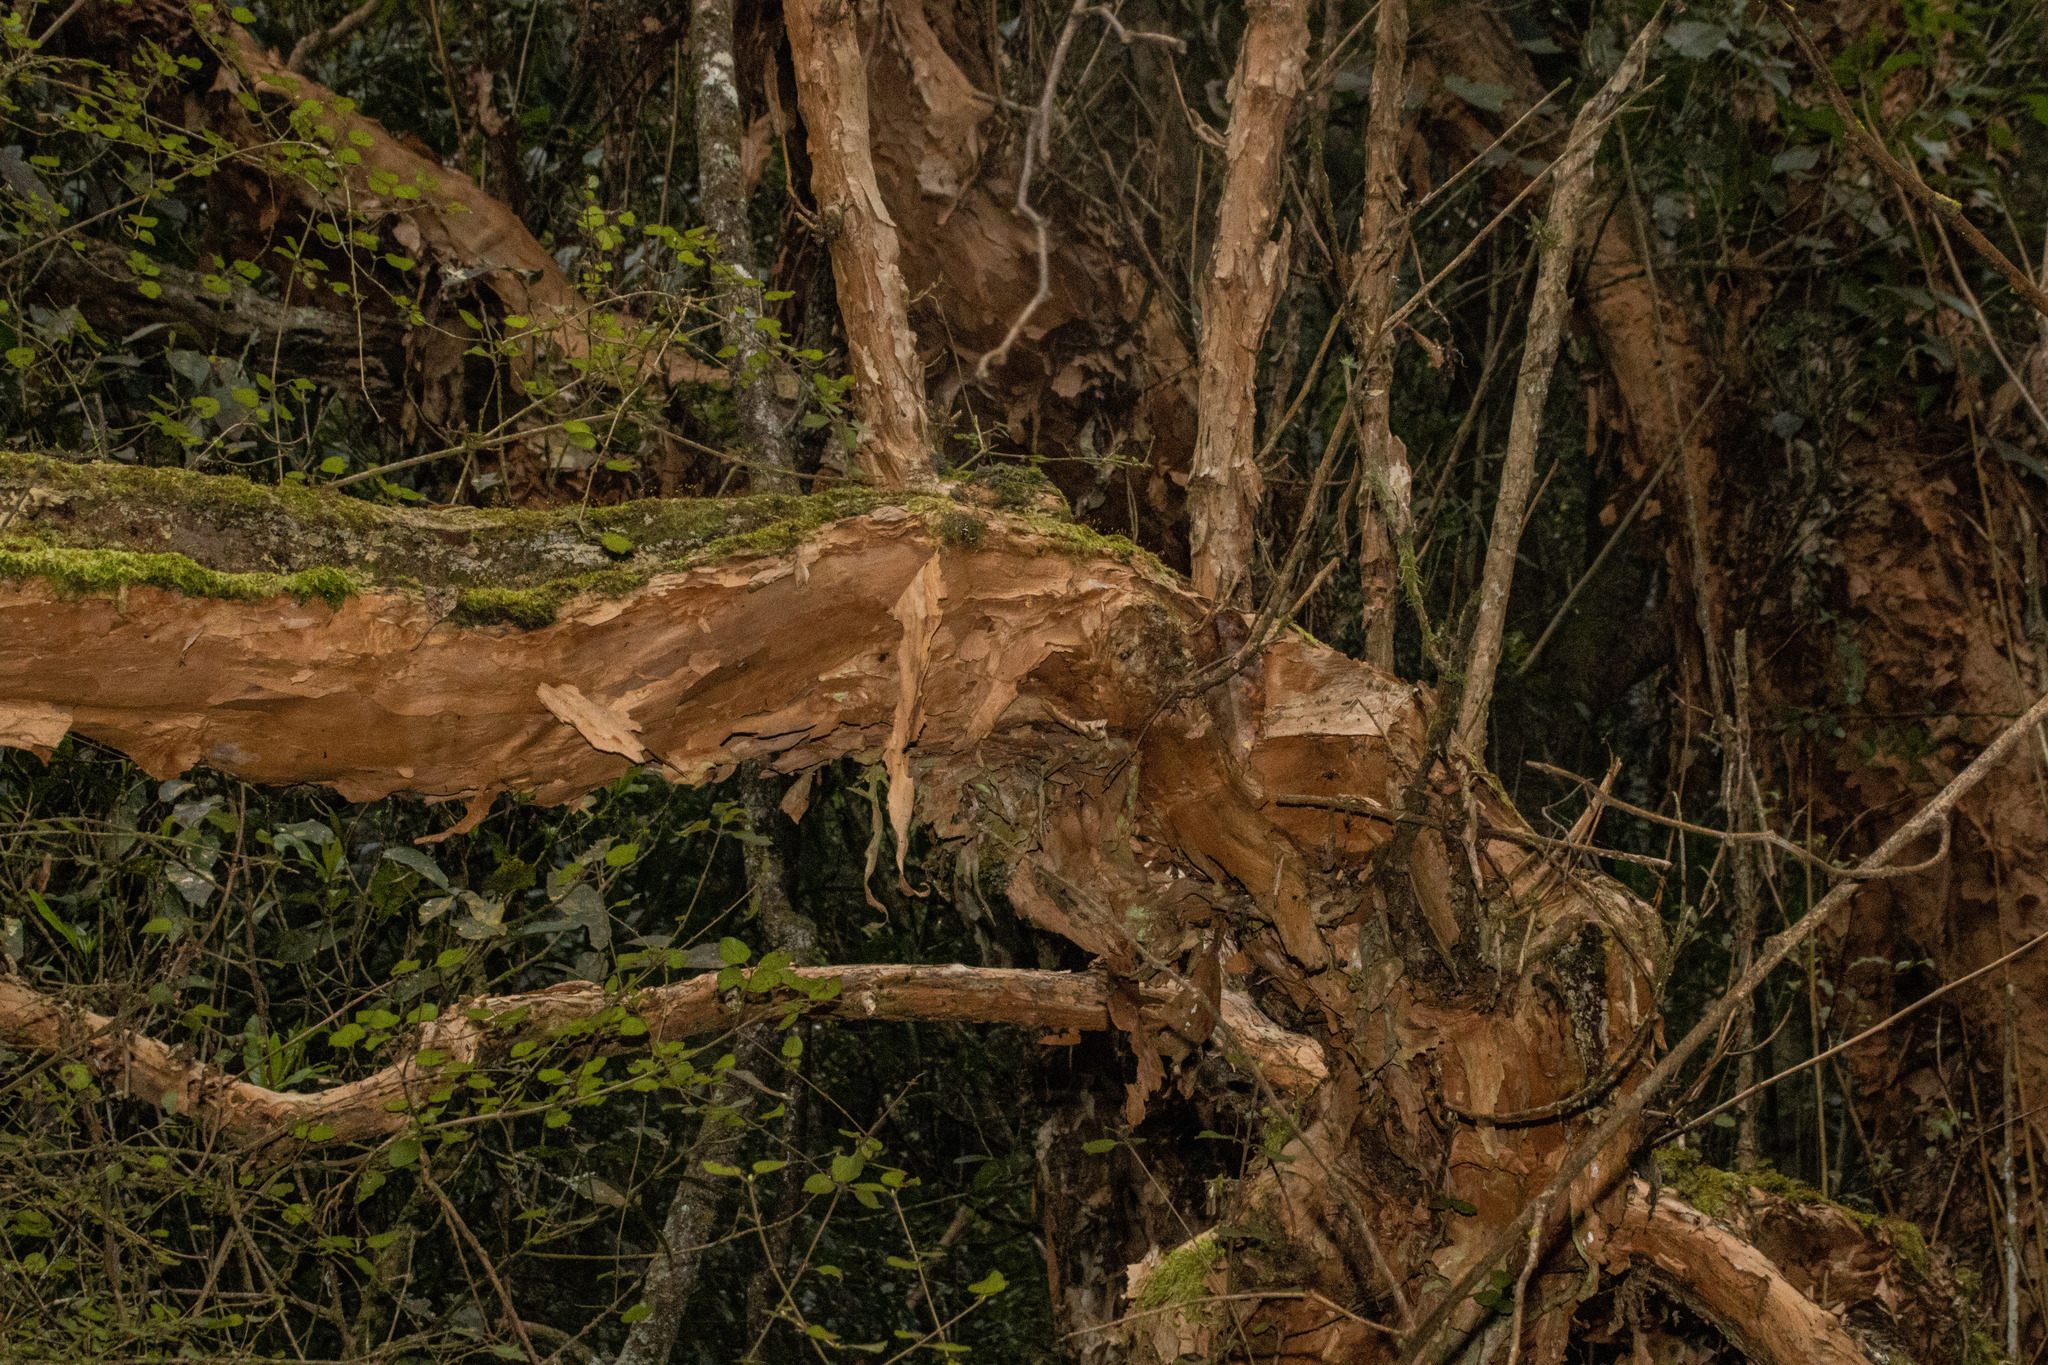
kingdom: Plantae
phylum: Tracheophyta
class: Magnoliopsida
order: Myrtales
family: Onagraceae
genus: Fuchsia
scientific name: Fuchsia excorticata
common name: Tree fuchsia
